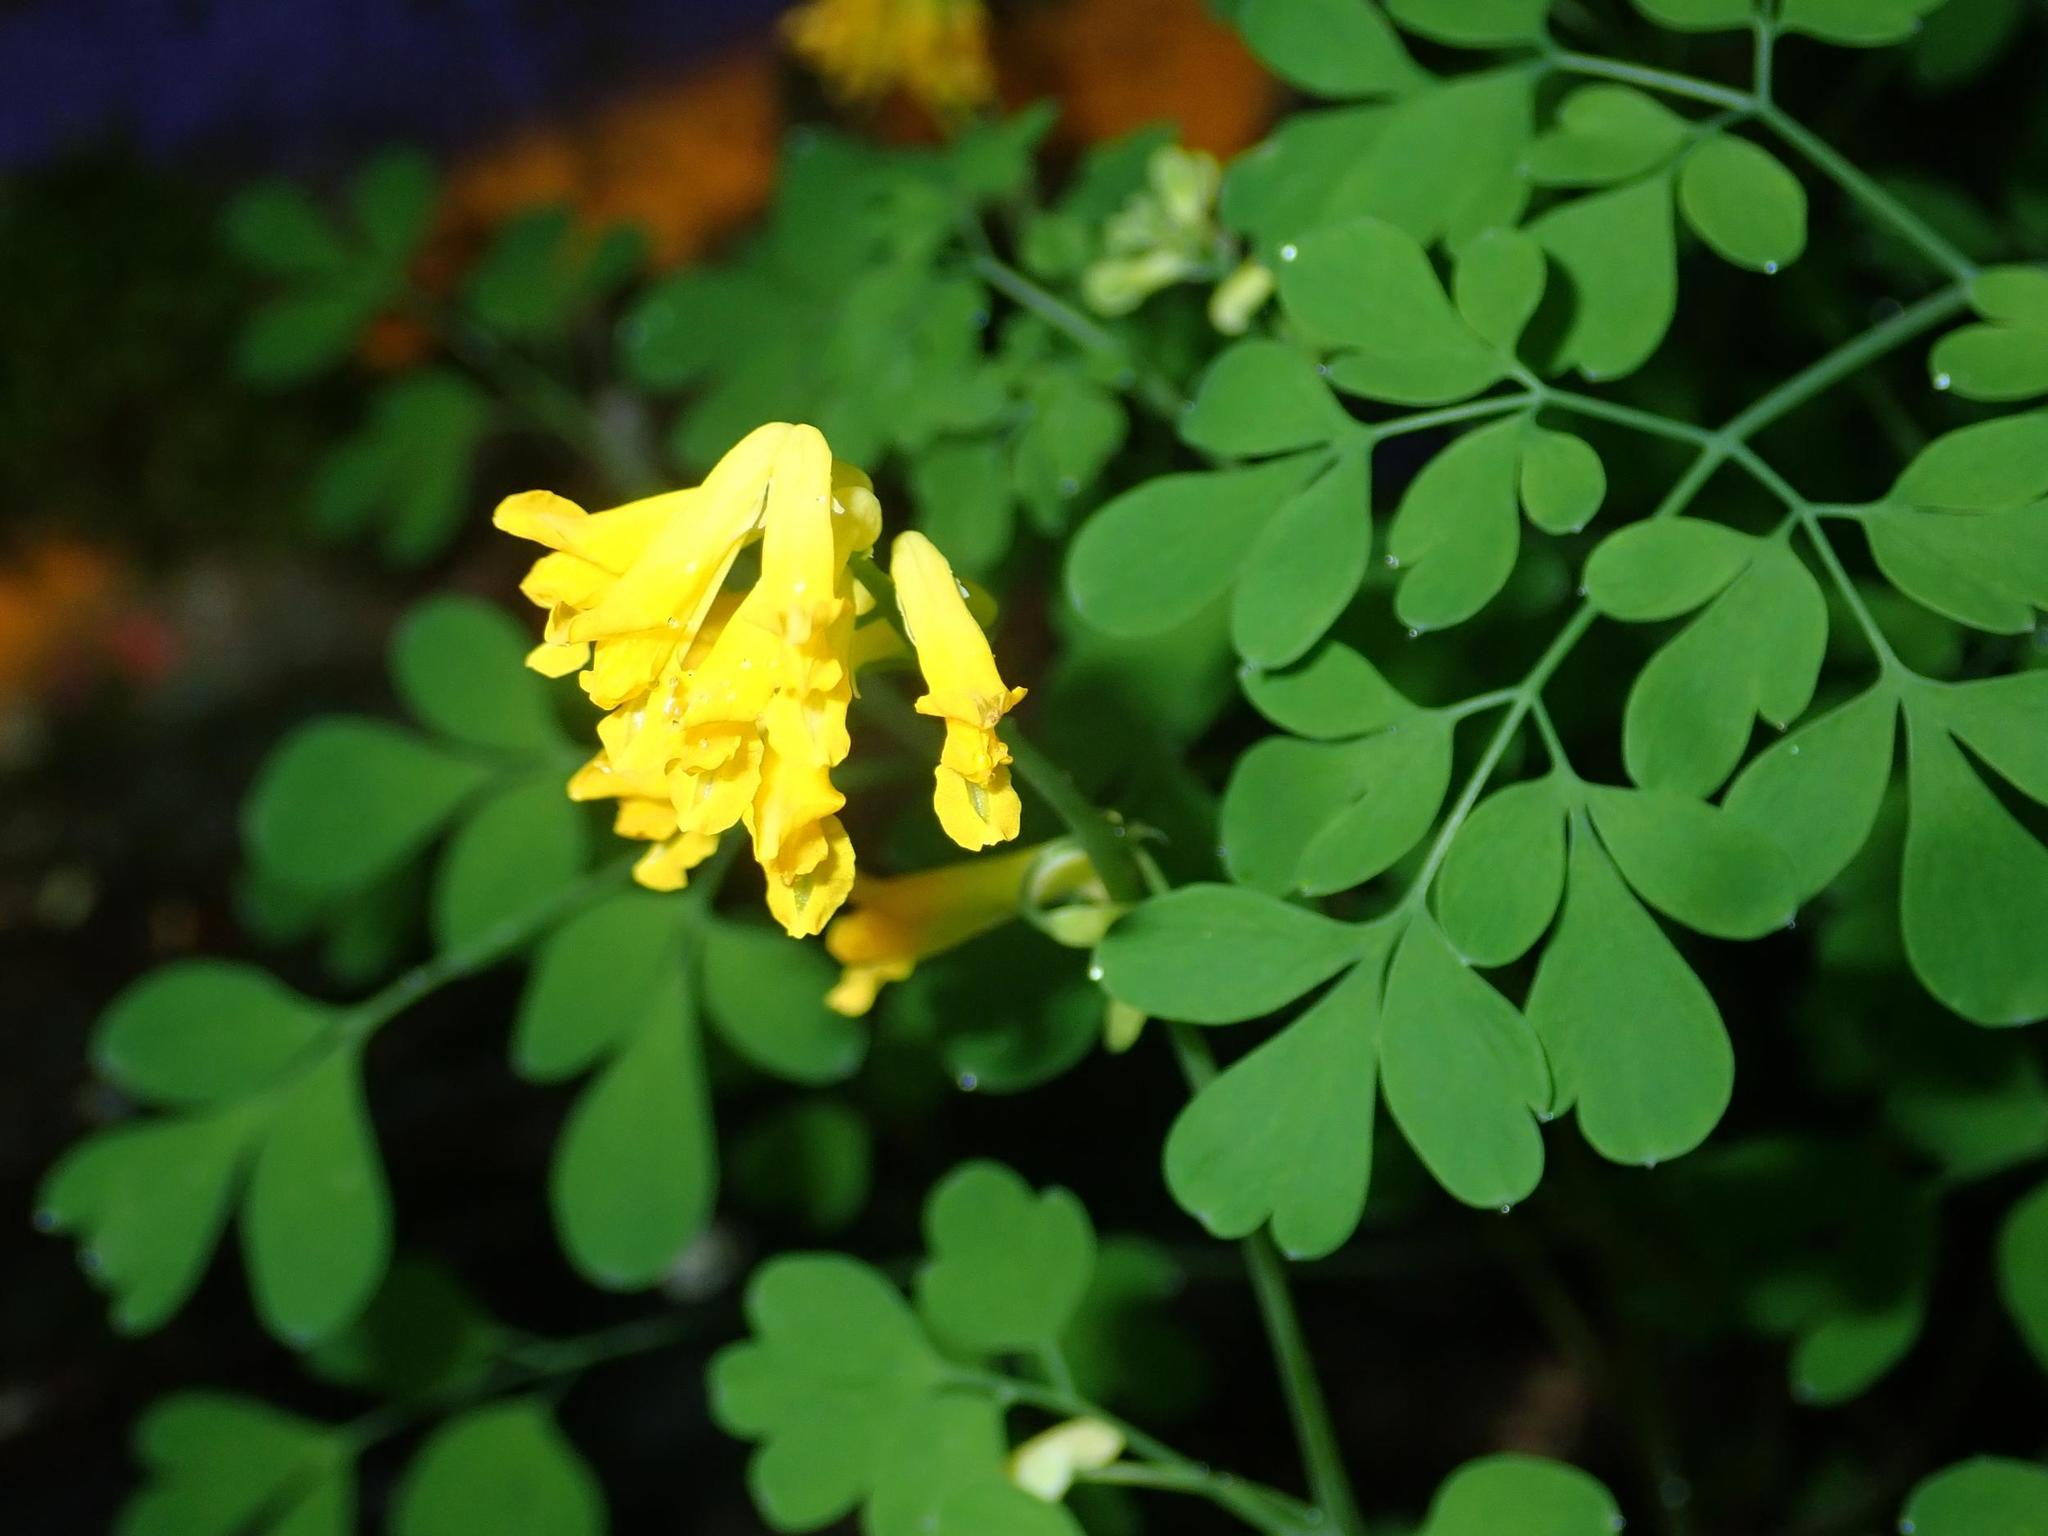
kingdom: Plantae
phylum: Tracheophyta
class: Magnoliopsida
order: Ranunculales
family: Papaveraceae
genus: Pseudofumaria
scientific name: Pseudofumaria lutea
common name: Yellow corydalis
